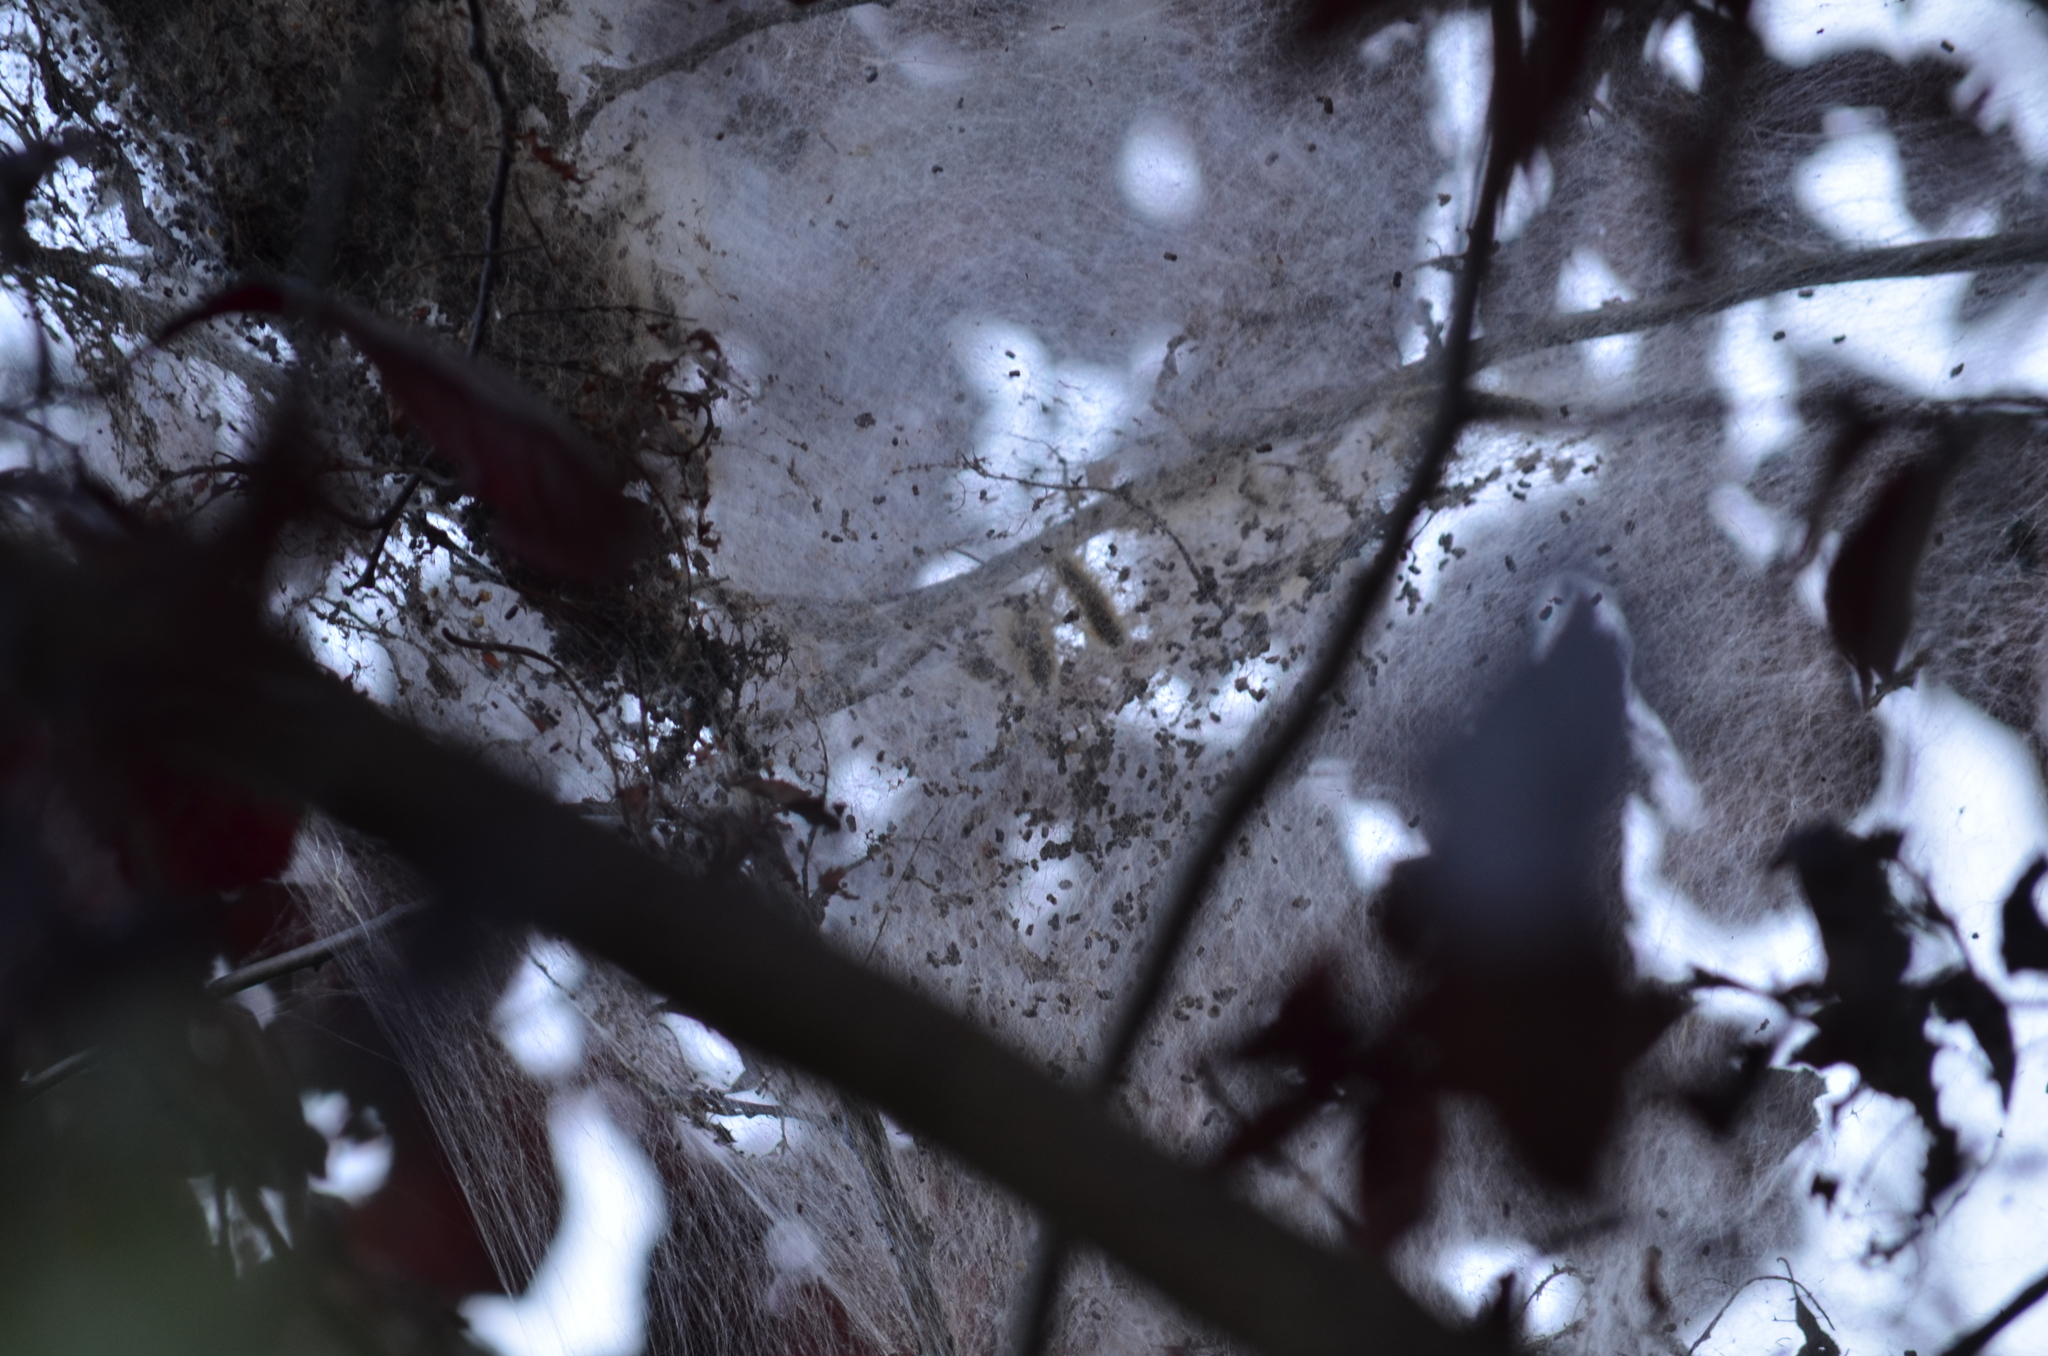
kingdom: Animalia
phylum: Arthropoda
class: Insecta
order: Lepidoptera
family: Erebidae
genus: Hyphantria
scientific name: Hyphantria cunea
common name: American white moth
